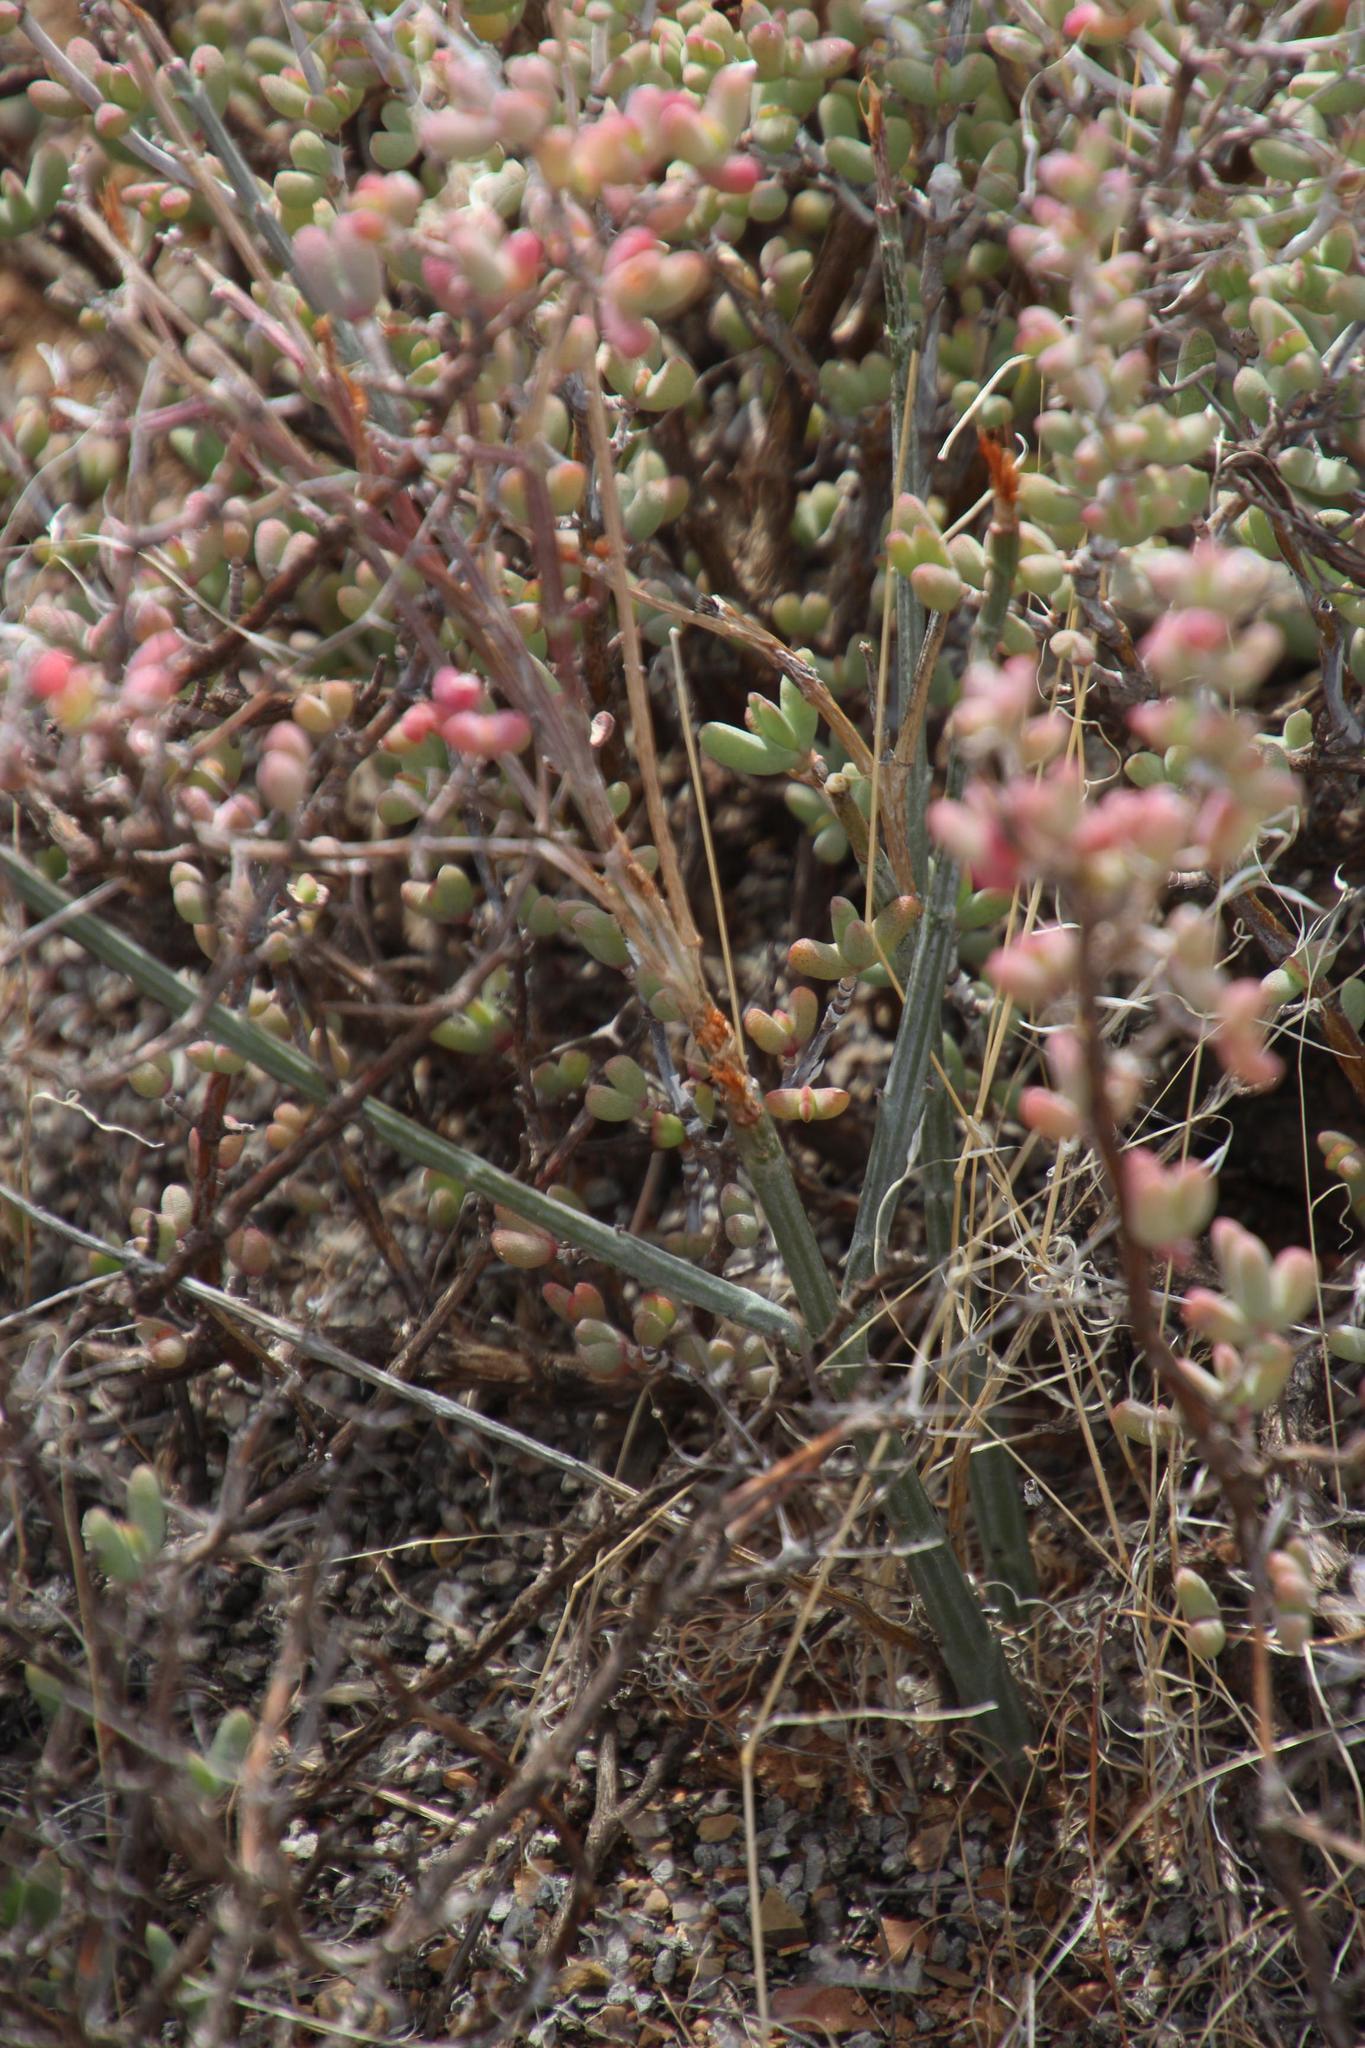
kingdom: Plantae
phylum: Tracheophyta
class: Magnoliopsida
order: Asterales
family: Asteraceae
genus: Senecio
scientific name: Senecio junceus
